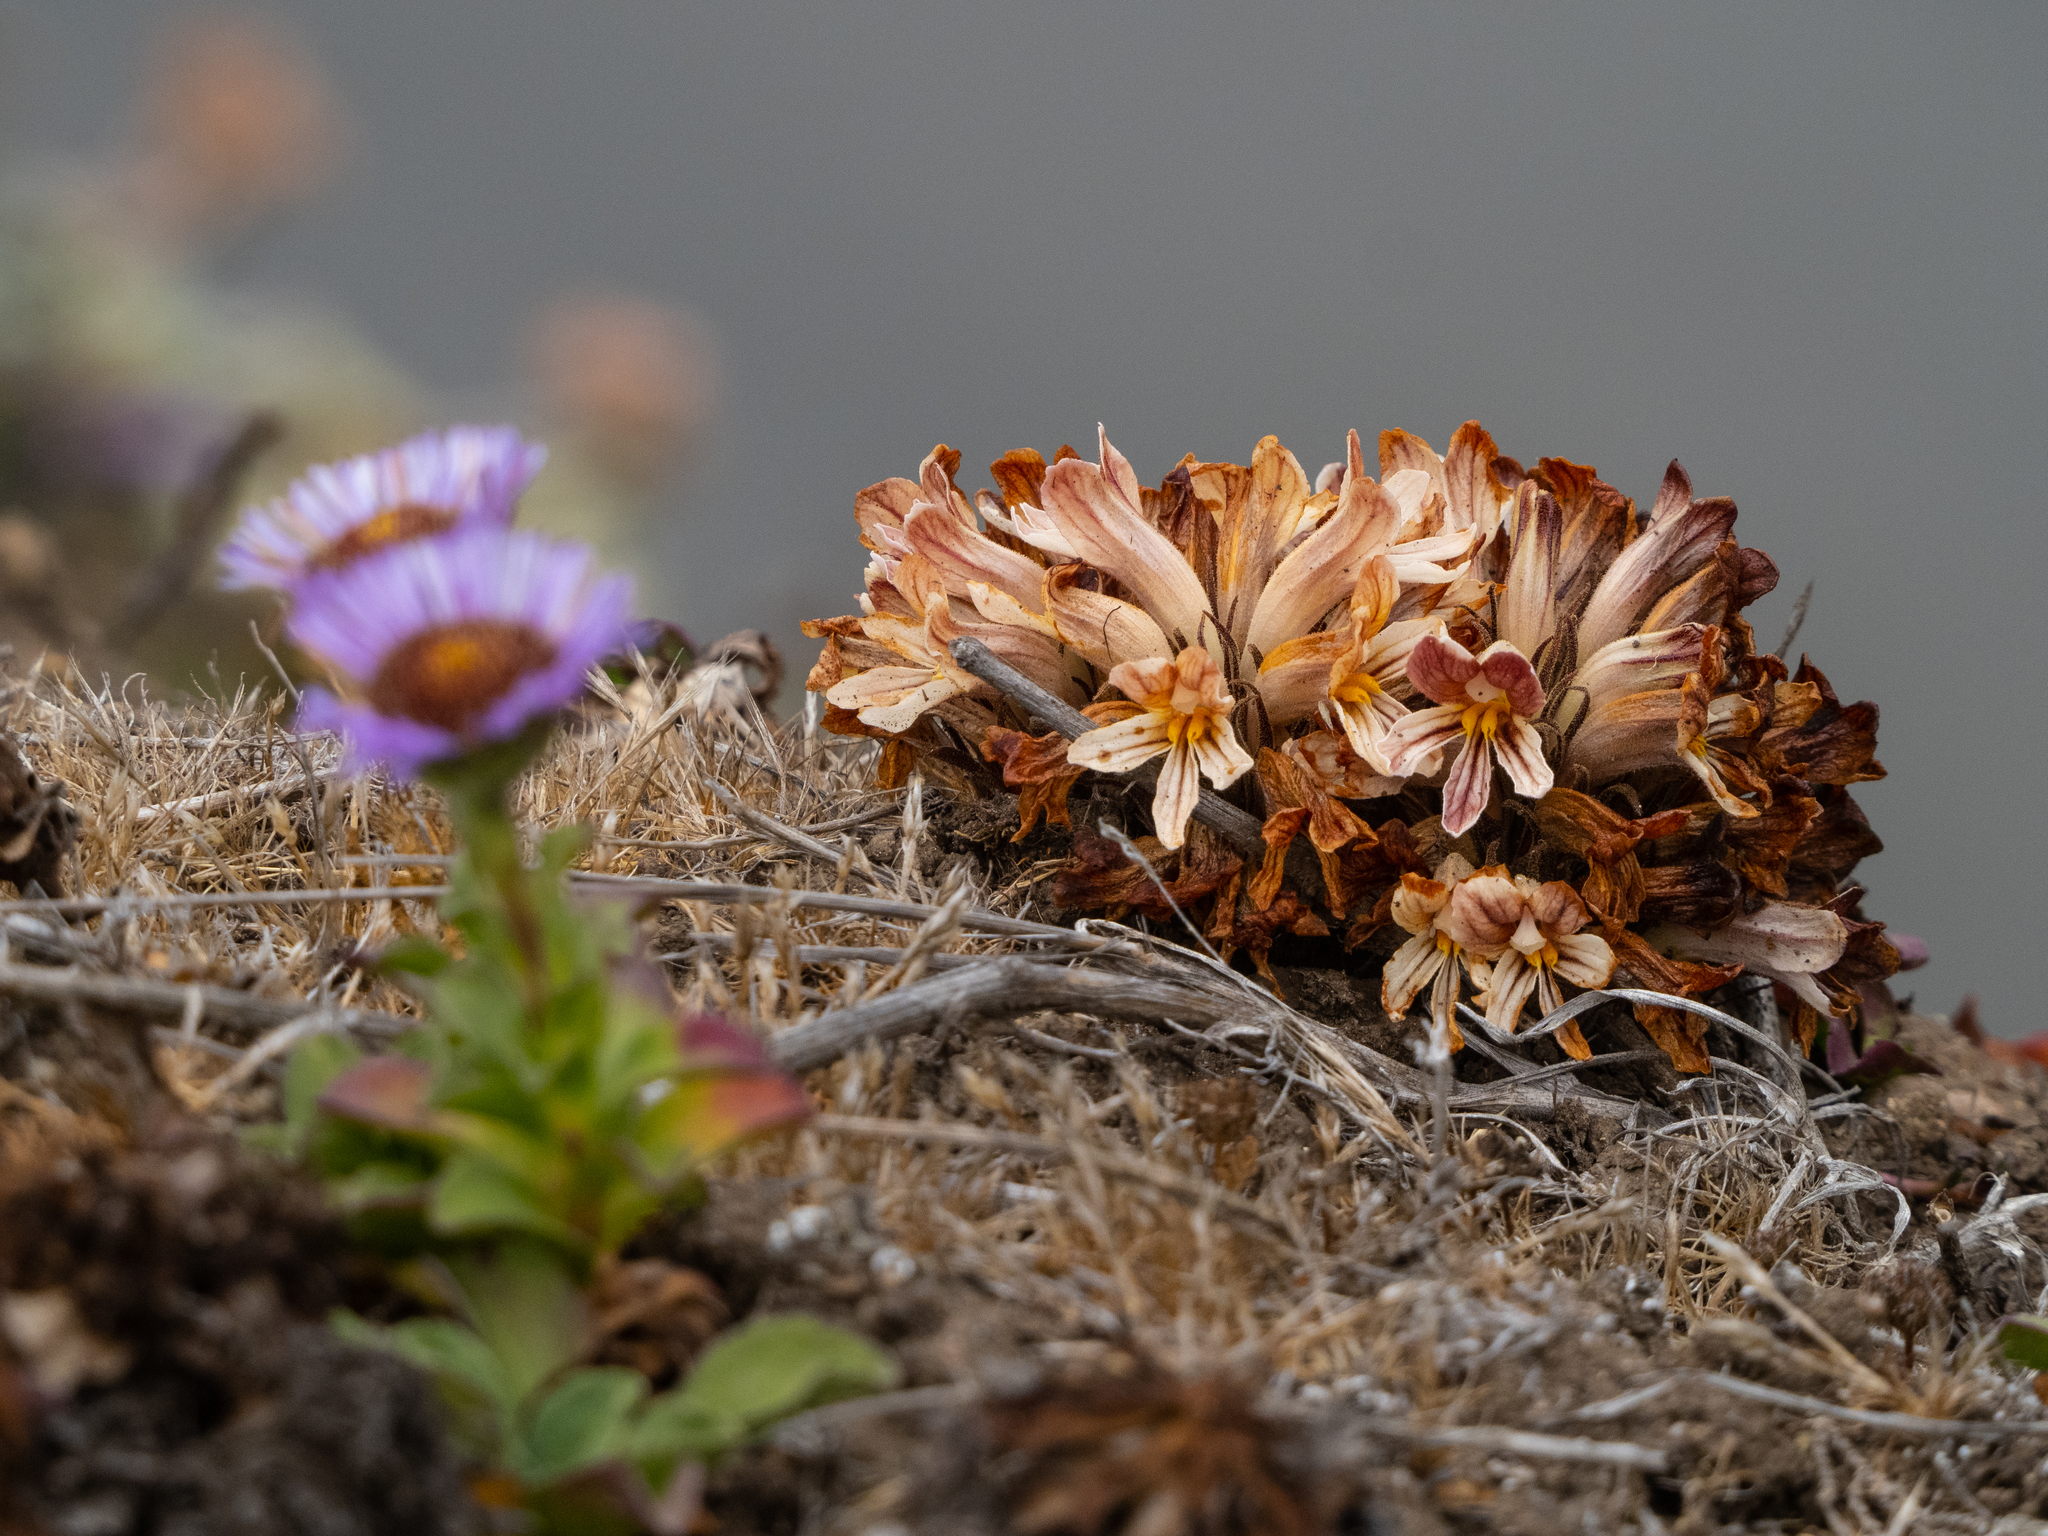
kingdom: Plantae
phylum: Tracheophyta
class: Magnoliopsida
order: Lamiales
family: Orobanchaceae
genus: Aphyllon
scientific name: Aphyllon californicum
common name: California broomrape
